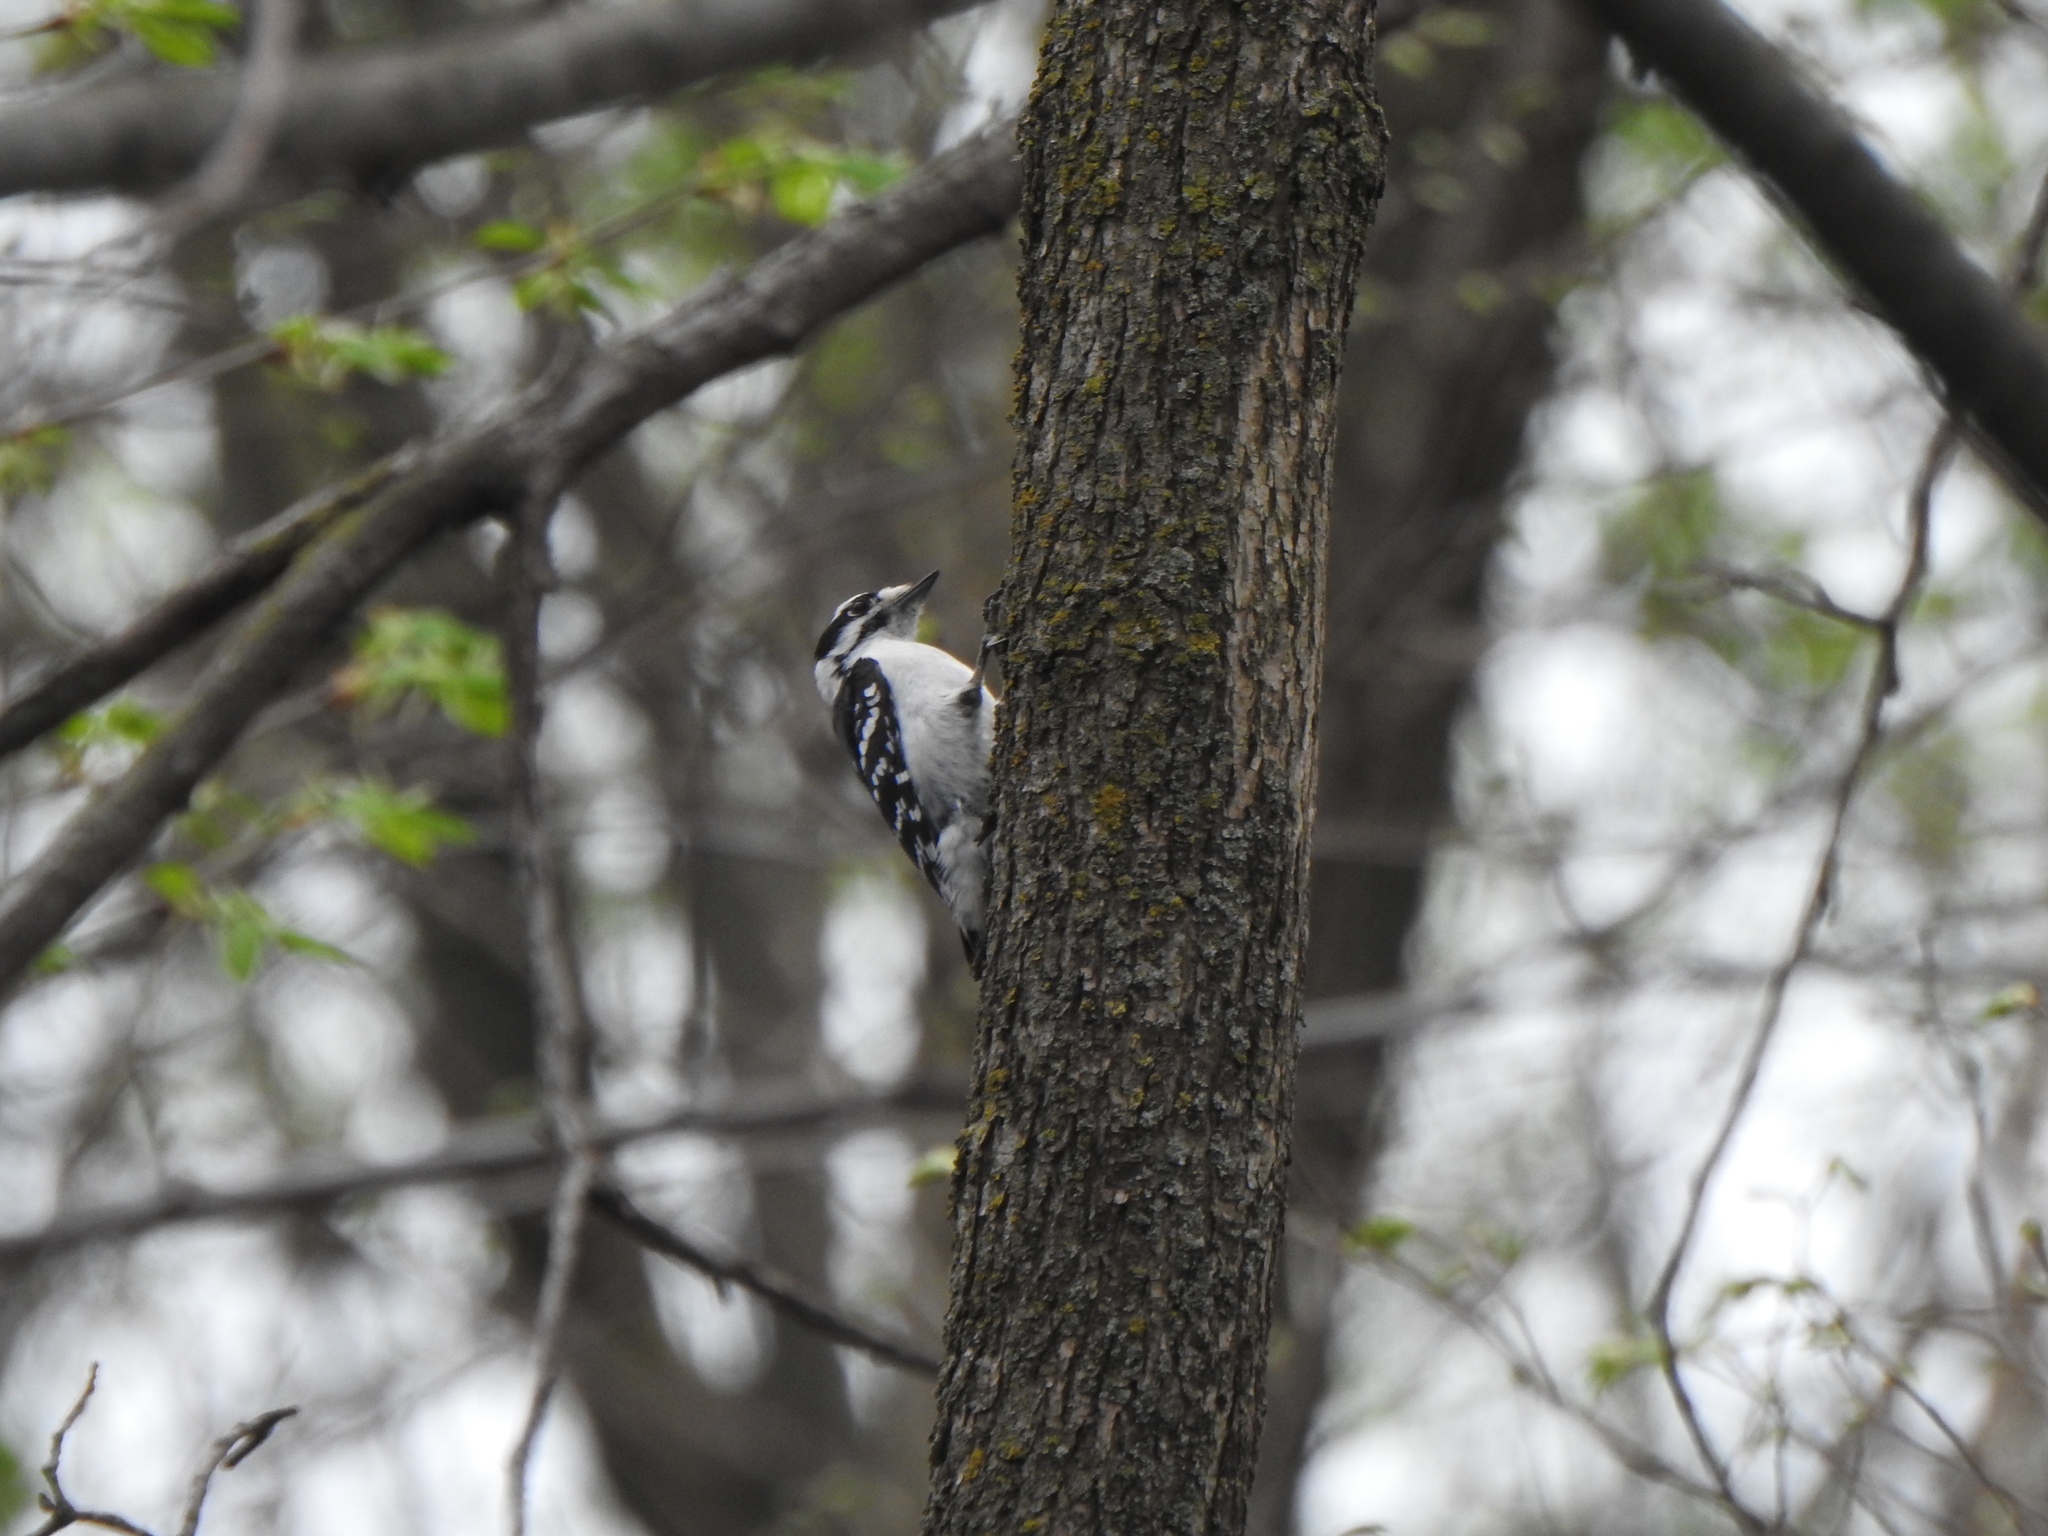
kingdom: Animalia
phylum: Chordata
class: Aves
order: Piciformes
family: Picidae
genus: Dryobates
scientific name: Dryobates pubescens
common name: Downy woodpecker
